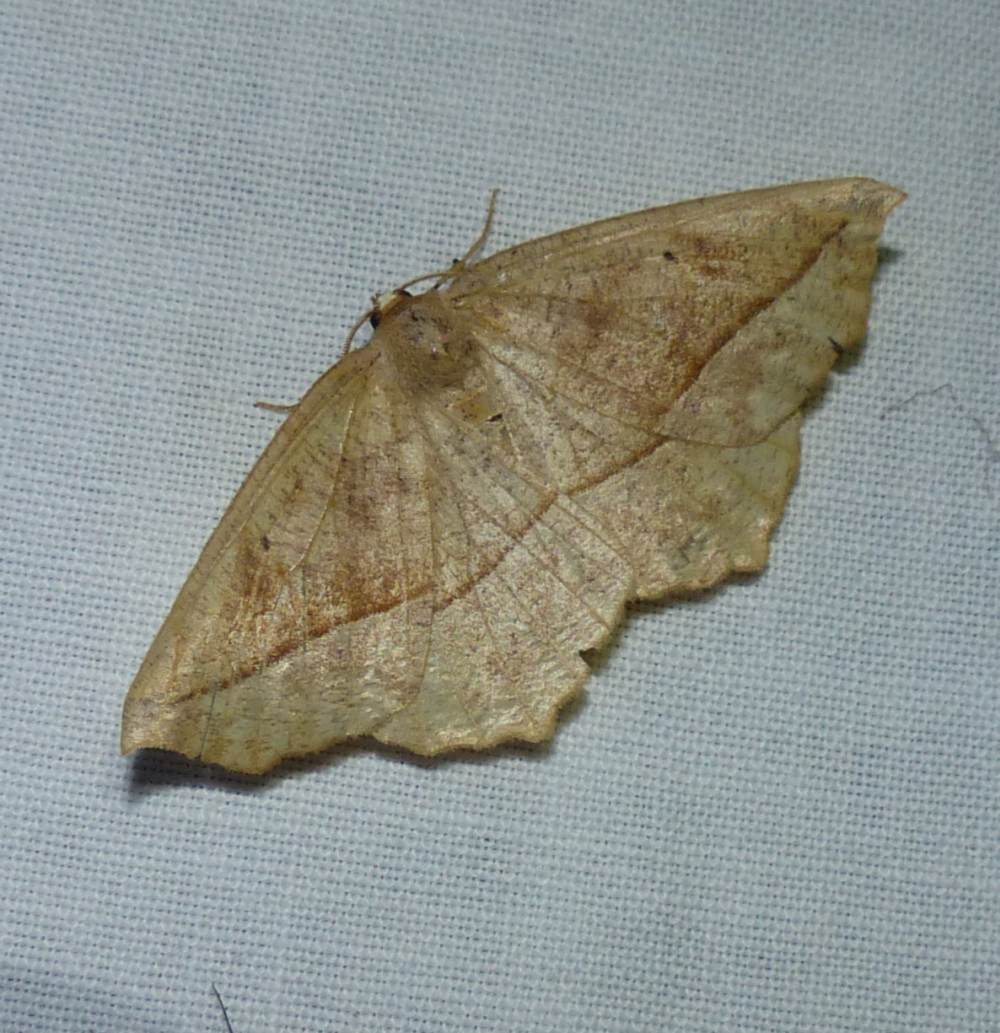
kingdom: Animalia
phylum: Arthropoda
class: Insecta
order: Lepidoptera
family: Geometridae
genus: Eutrapela
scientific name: Eutrapela clemataria
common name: Curved-toothed geometer
